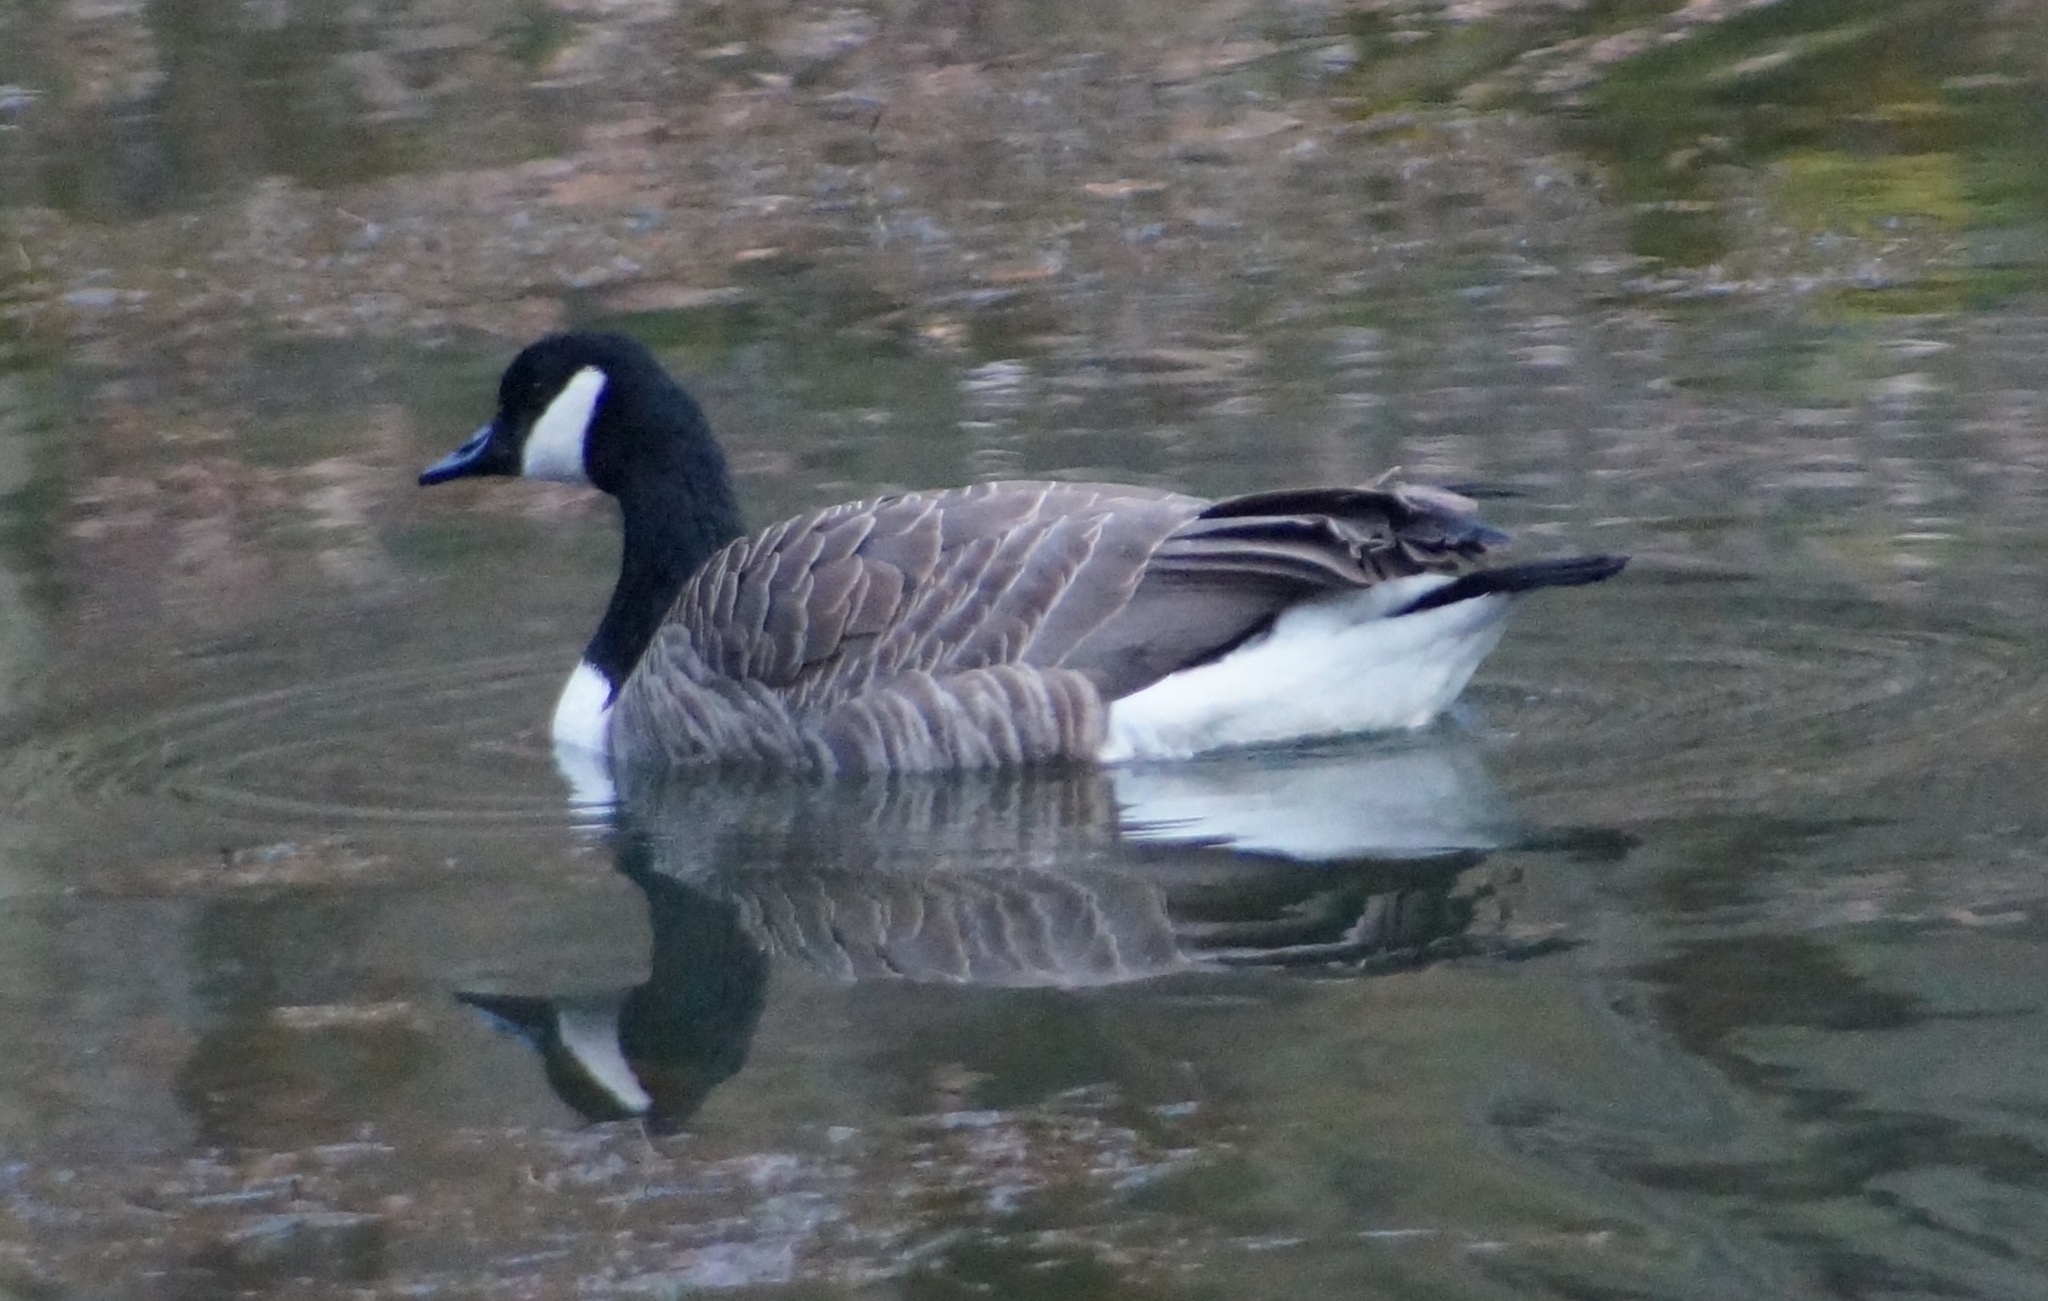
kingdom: Animalia
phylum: Chordata
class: Aves
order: Anseriformes
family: Anatidae
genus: Branta
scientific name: Branta canadensis
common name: Canada goose
